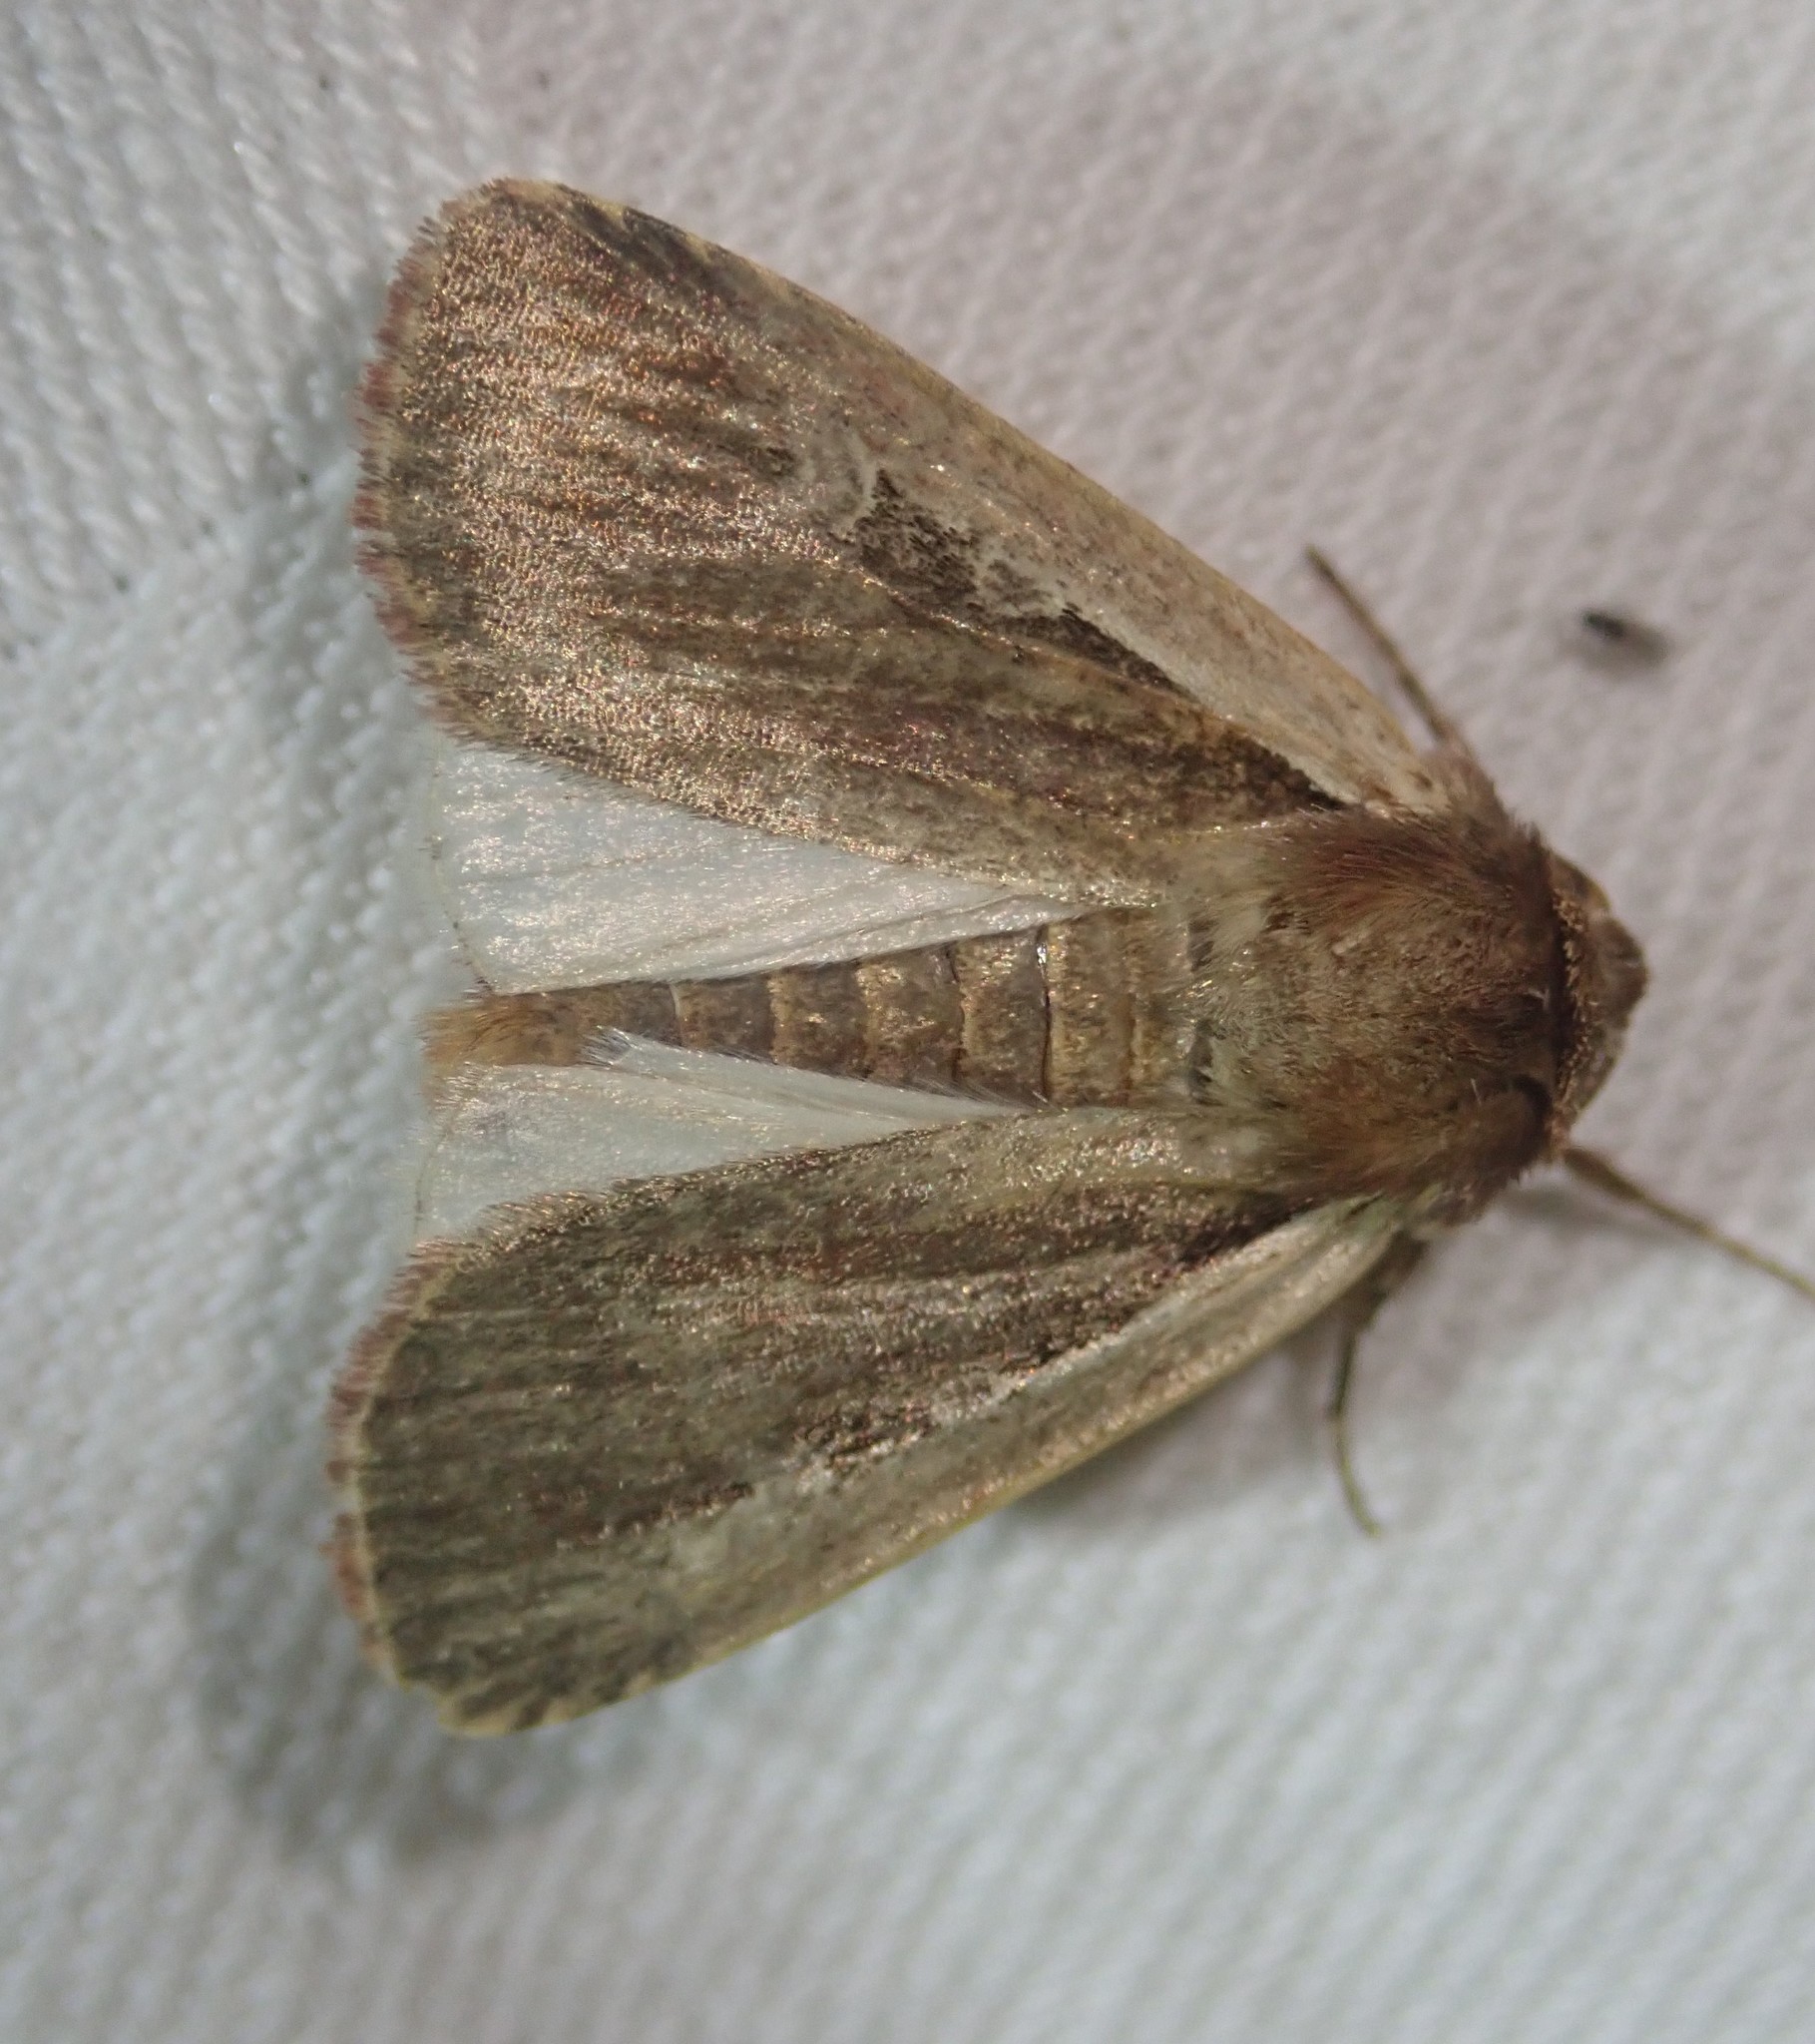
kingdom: Animalia
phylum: Arthropoda
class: Insecta
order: Lepidoptera
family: Noctuidae
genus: Ochropleura
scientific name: Ochropleura plecta
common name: Flame shoulder
